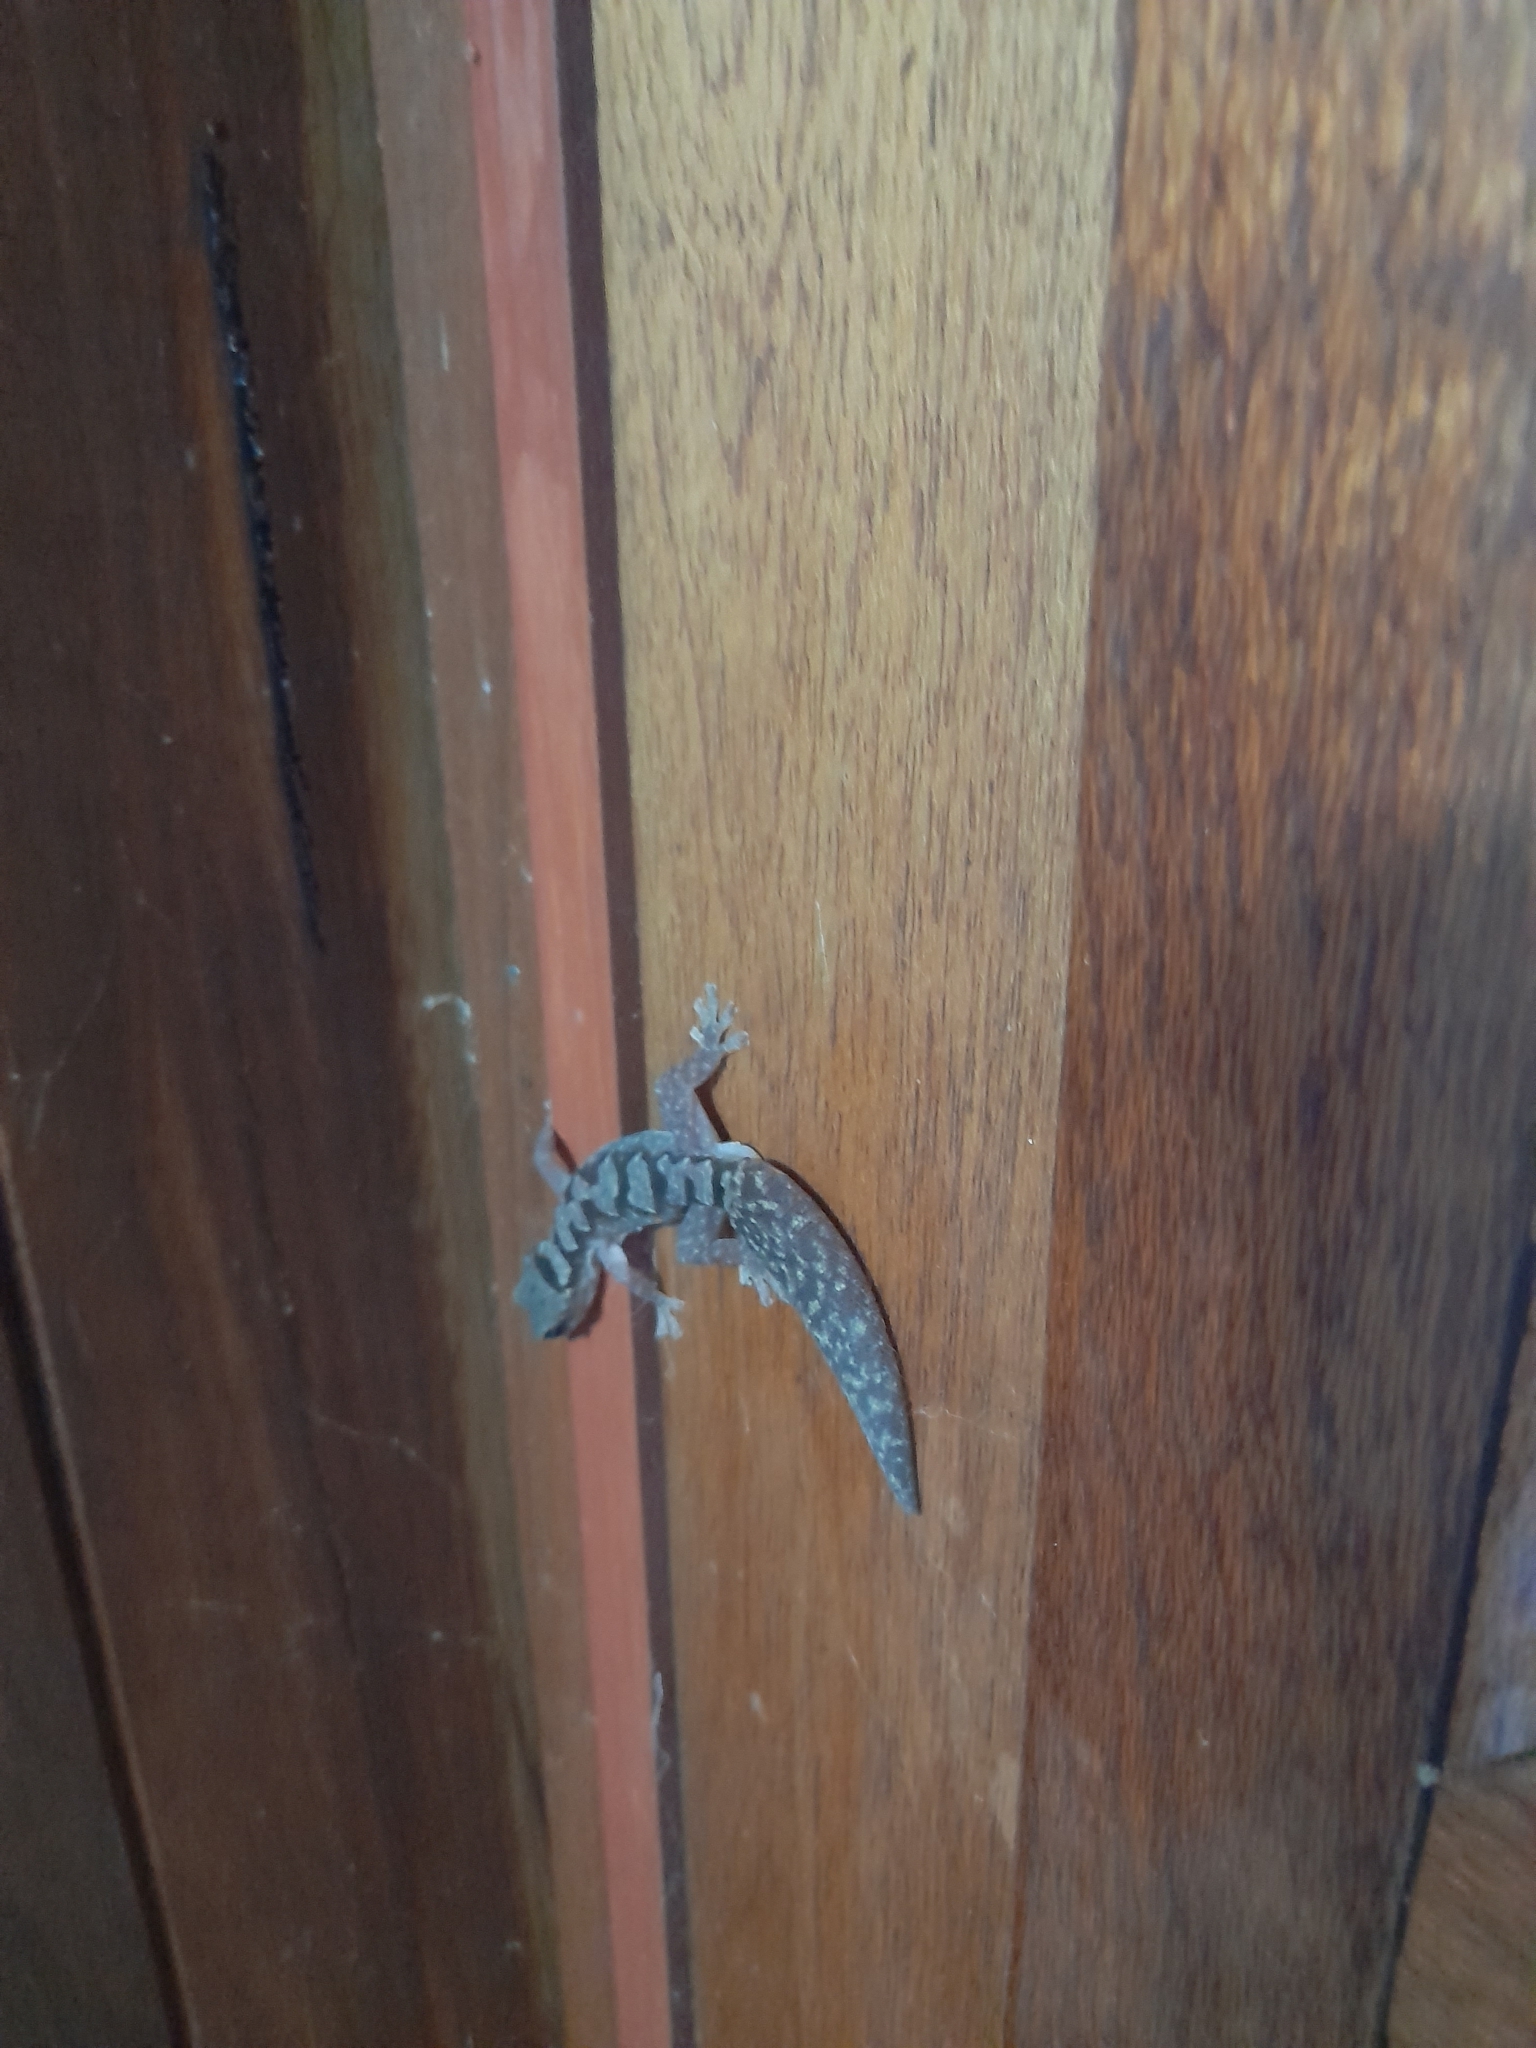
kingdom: Animalia
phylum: Chordata
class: Squamata
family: Diplodactylidae
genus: Nebulifera
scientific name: Nebulifera robusta
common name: Robust gecko
